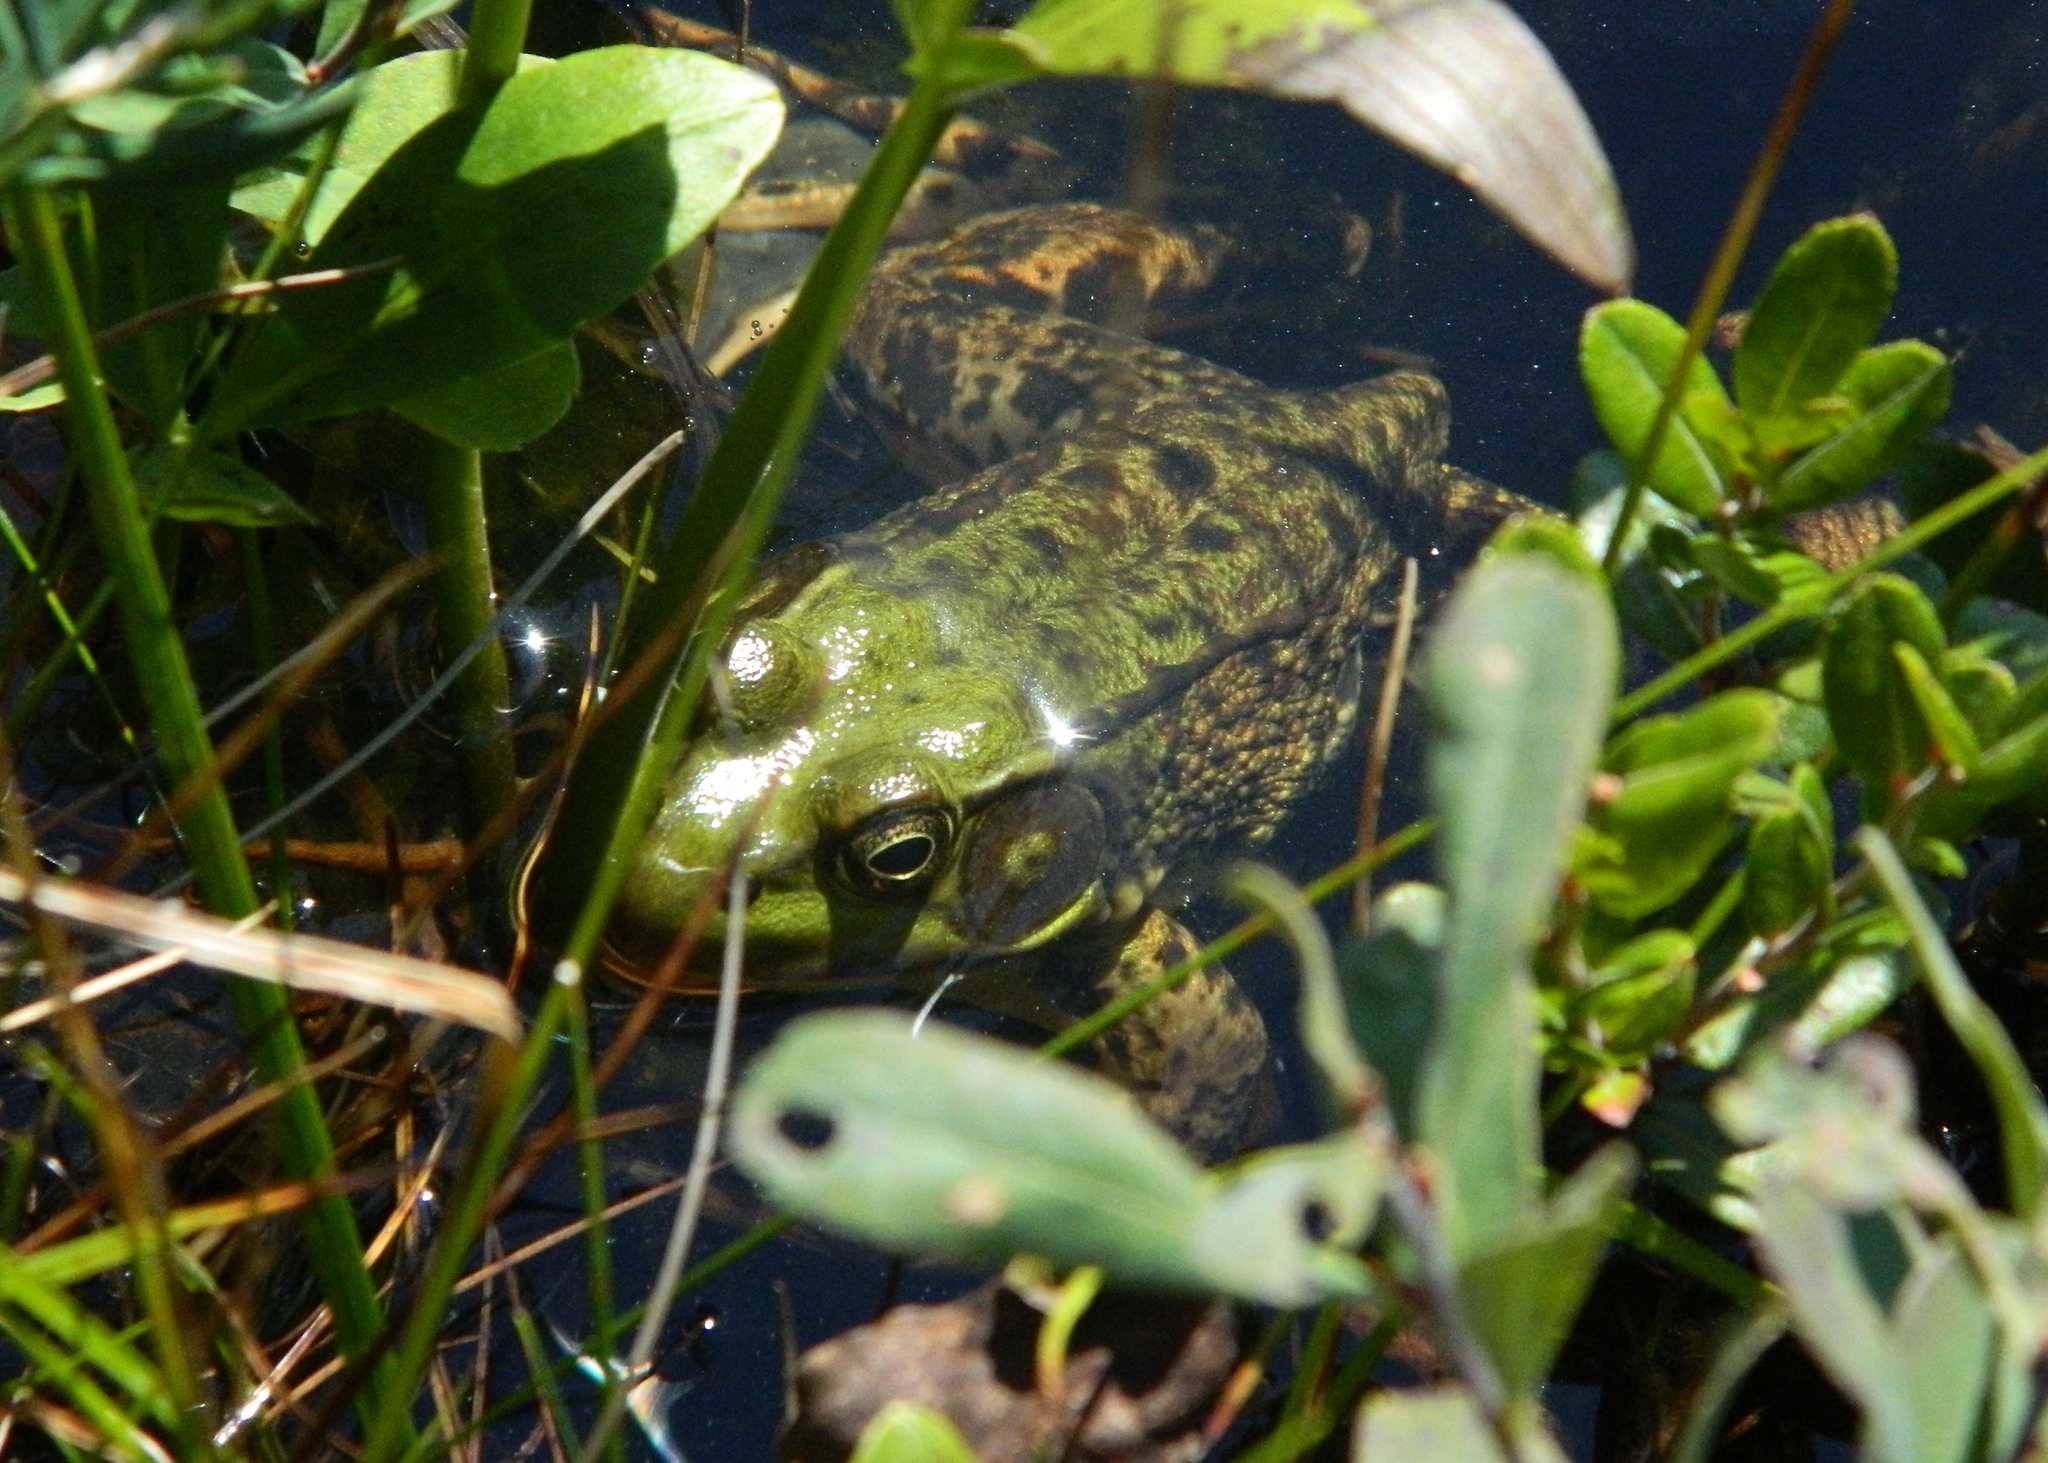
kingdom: Animalia
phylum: Chordata
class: Amphibia
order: Anura
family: Ranidae
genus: Lithobates
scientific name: Lithobates clamitans
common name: Green frog
